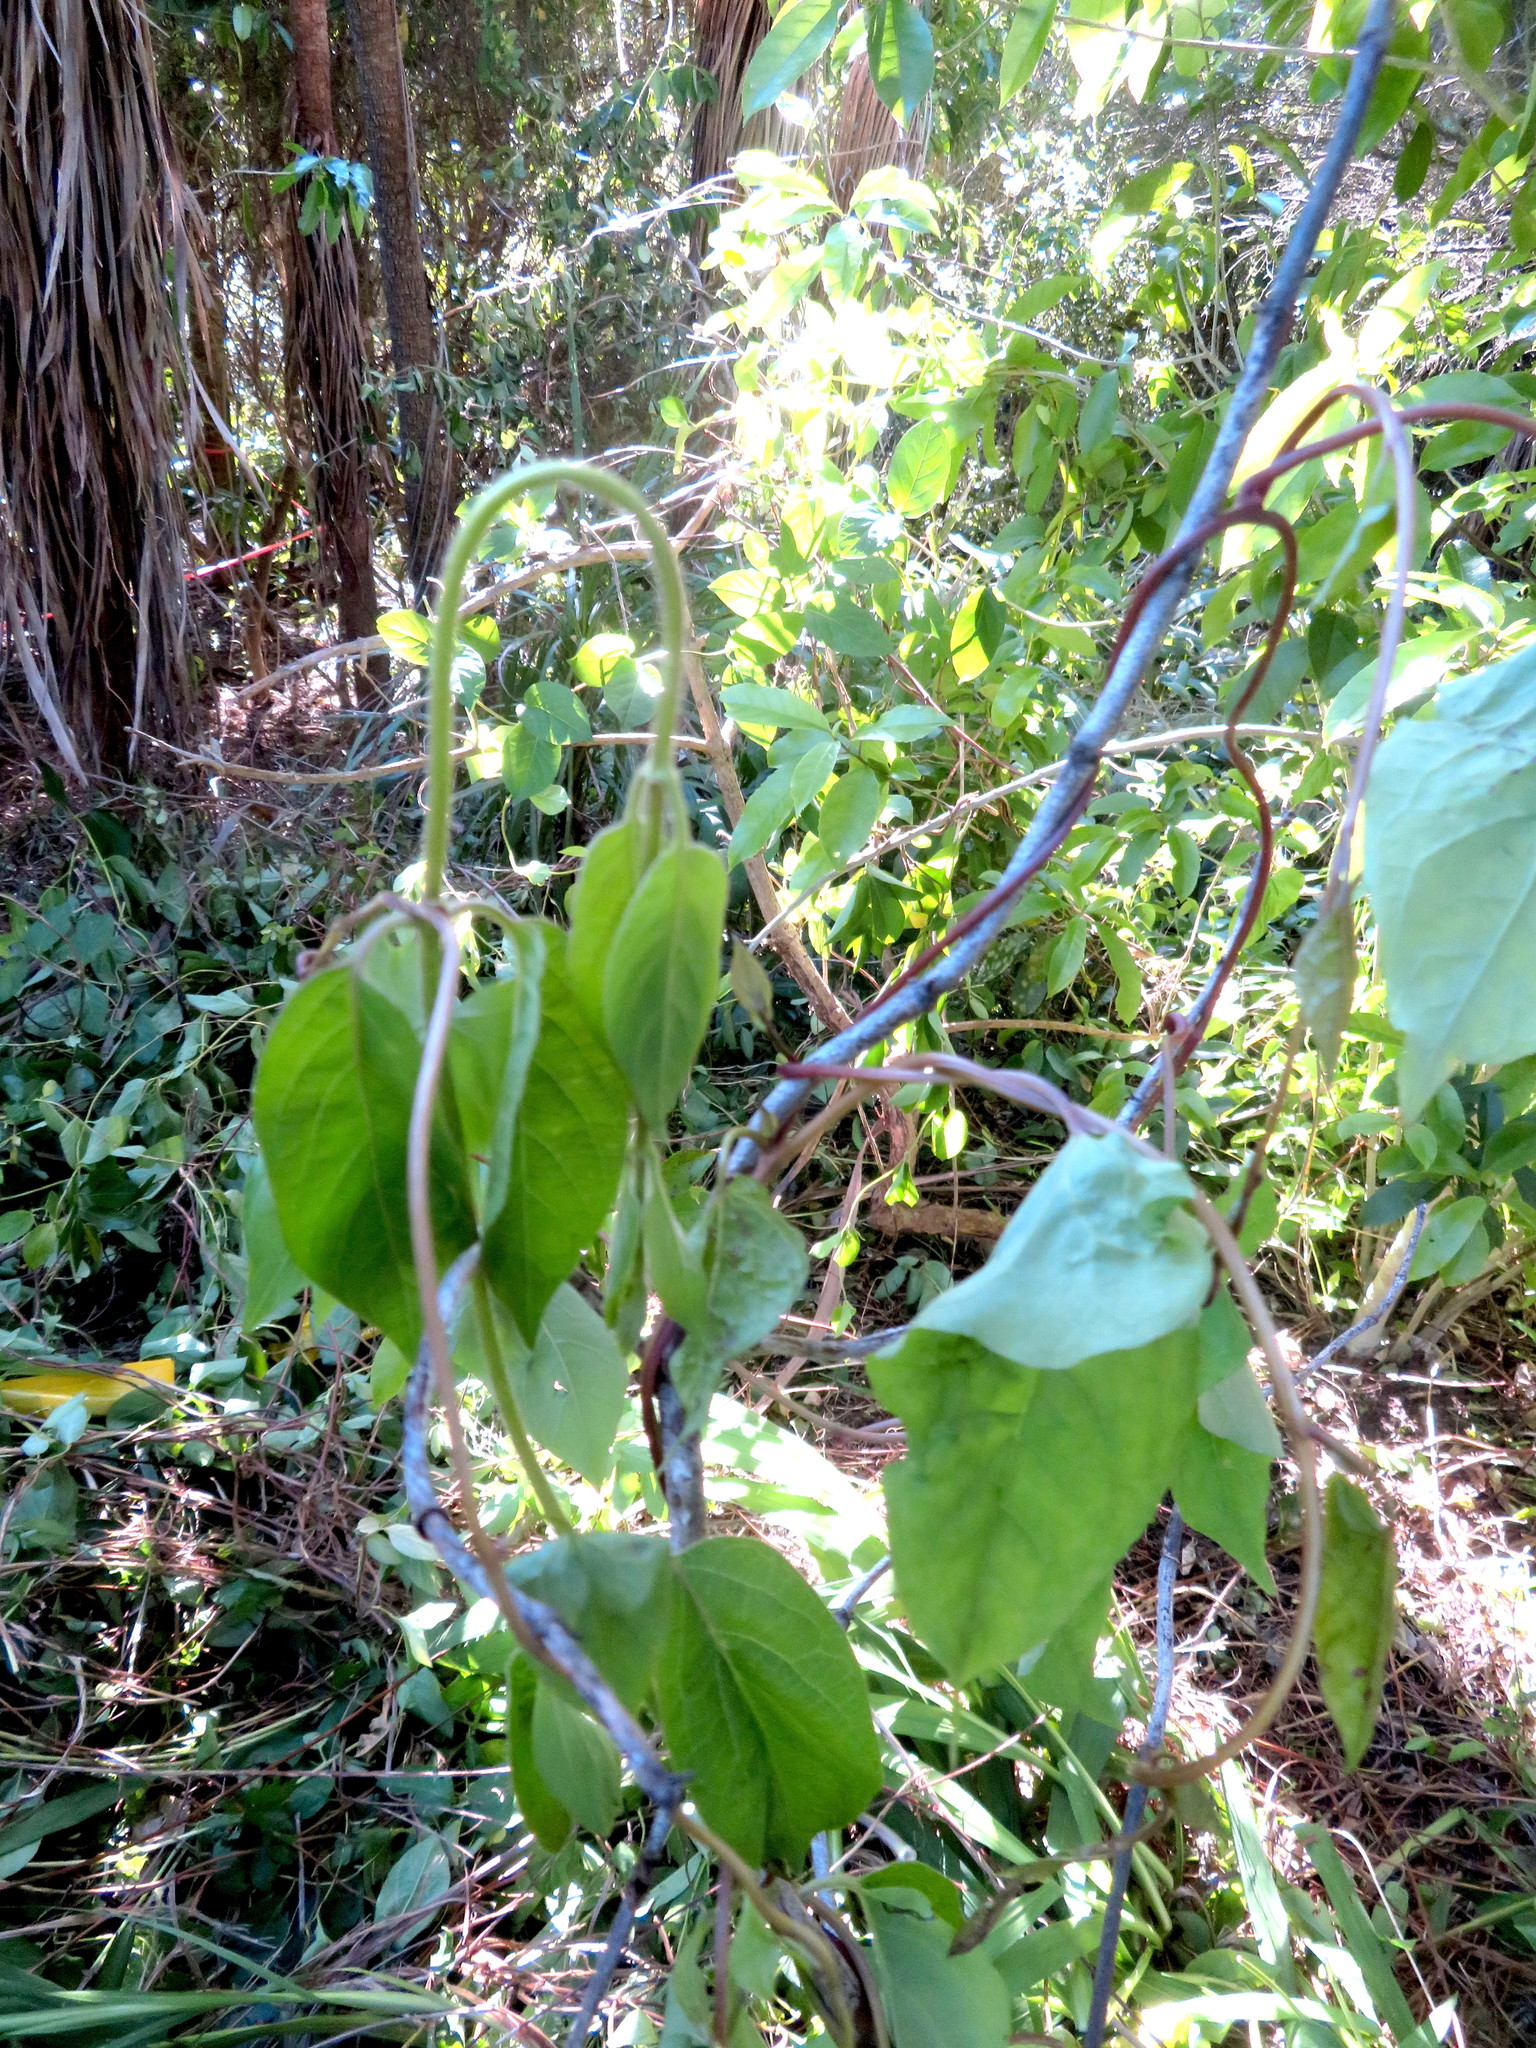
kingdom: Plantae
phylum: Tracheophyta
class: Magnoliopsida
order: Dipsacales
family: Caprifoliaceae
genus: Lonicera
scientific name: Lonicera japonica
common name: Japanese honeysuckle
